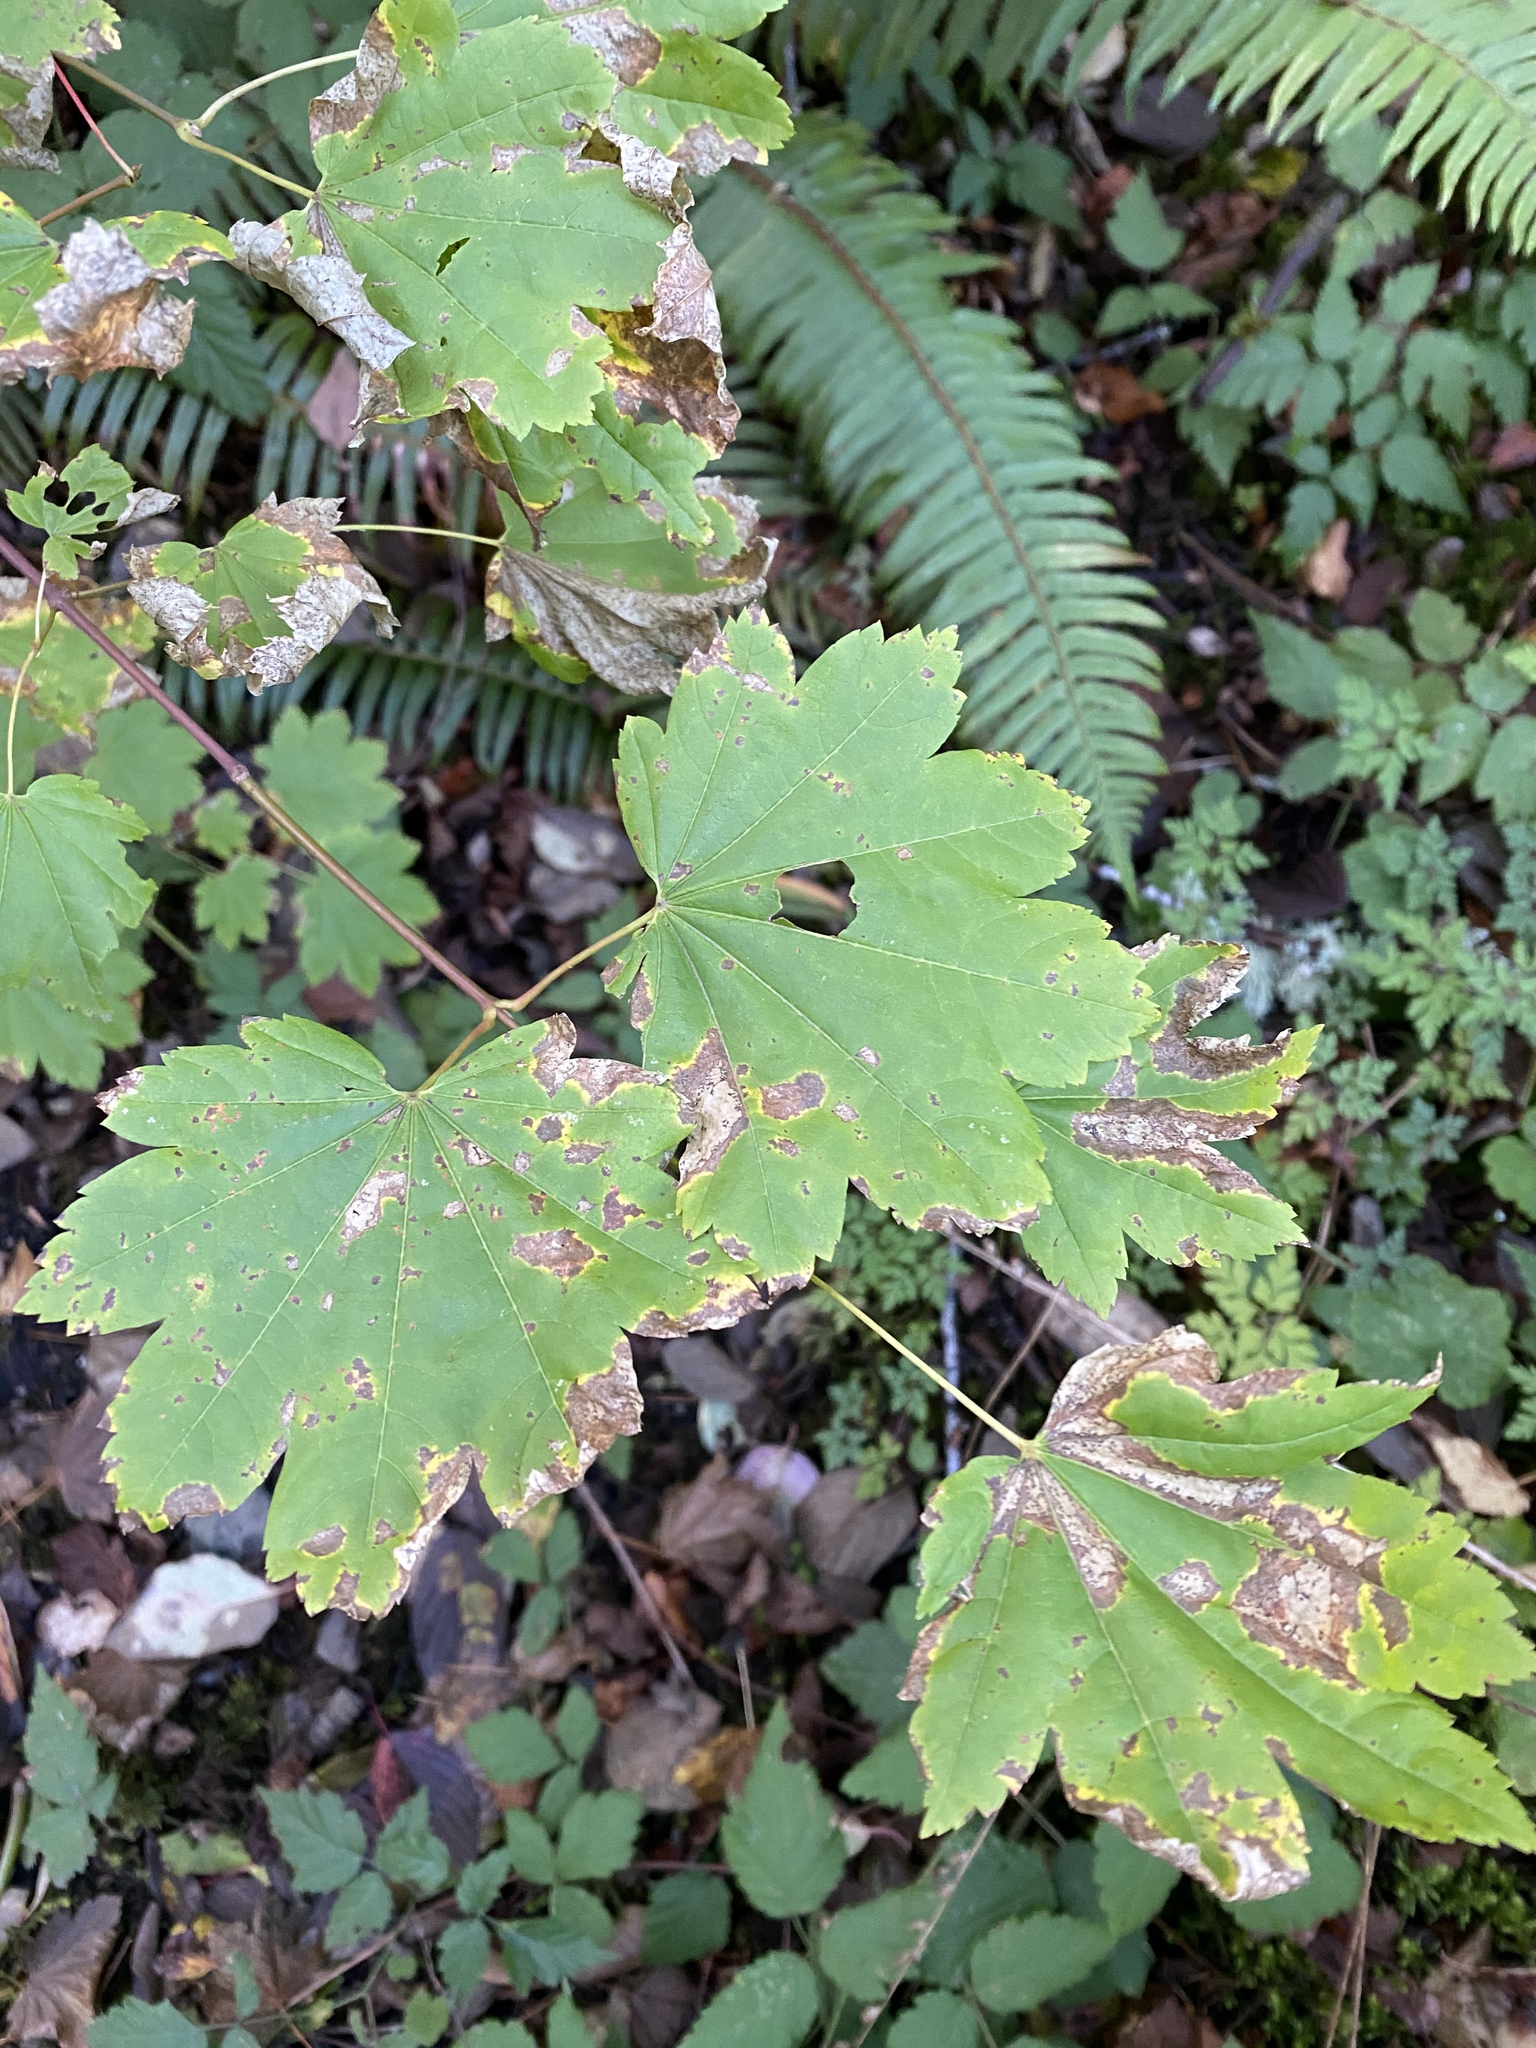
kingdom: Plantae
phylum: Tracheophyta
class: Magnoliopsida
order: Sapindales
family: Sapindaceae
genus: Acer
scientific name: Acer circinatum
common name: Vine maple
